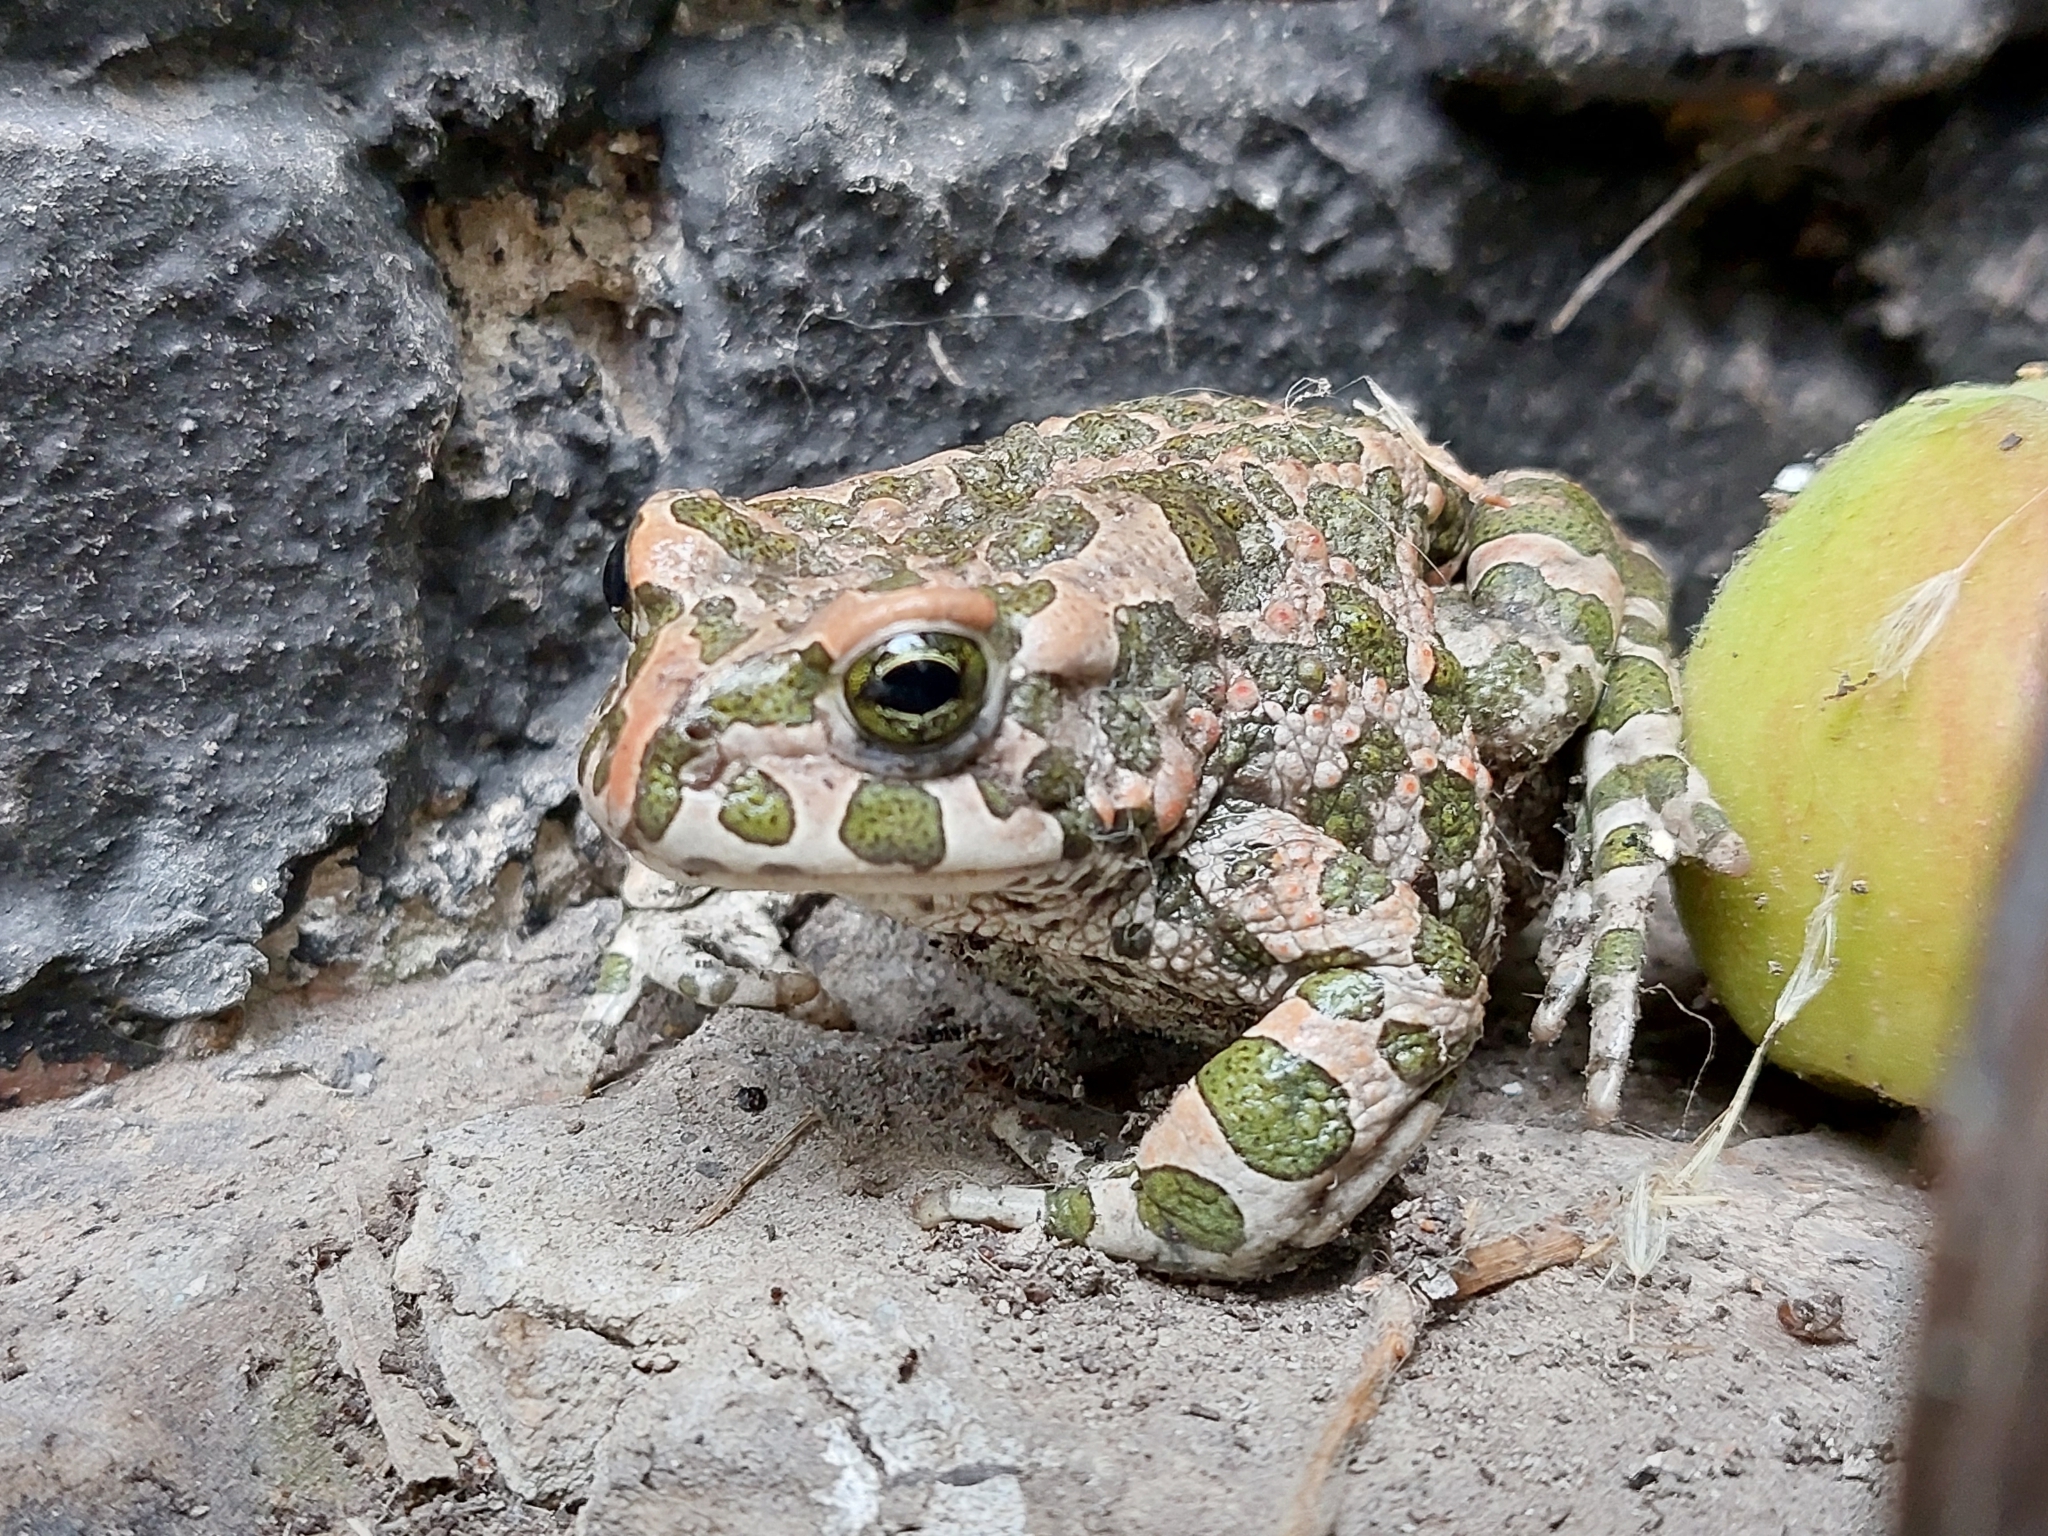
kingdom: Animalia
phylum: Chordata
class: Amphibia
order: Anura
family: Bufonidae
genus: Bufotes
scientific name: Bufotes viridis
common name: European green toad
